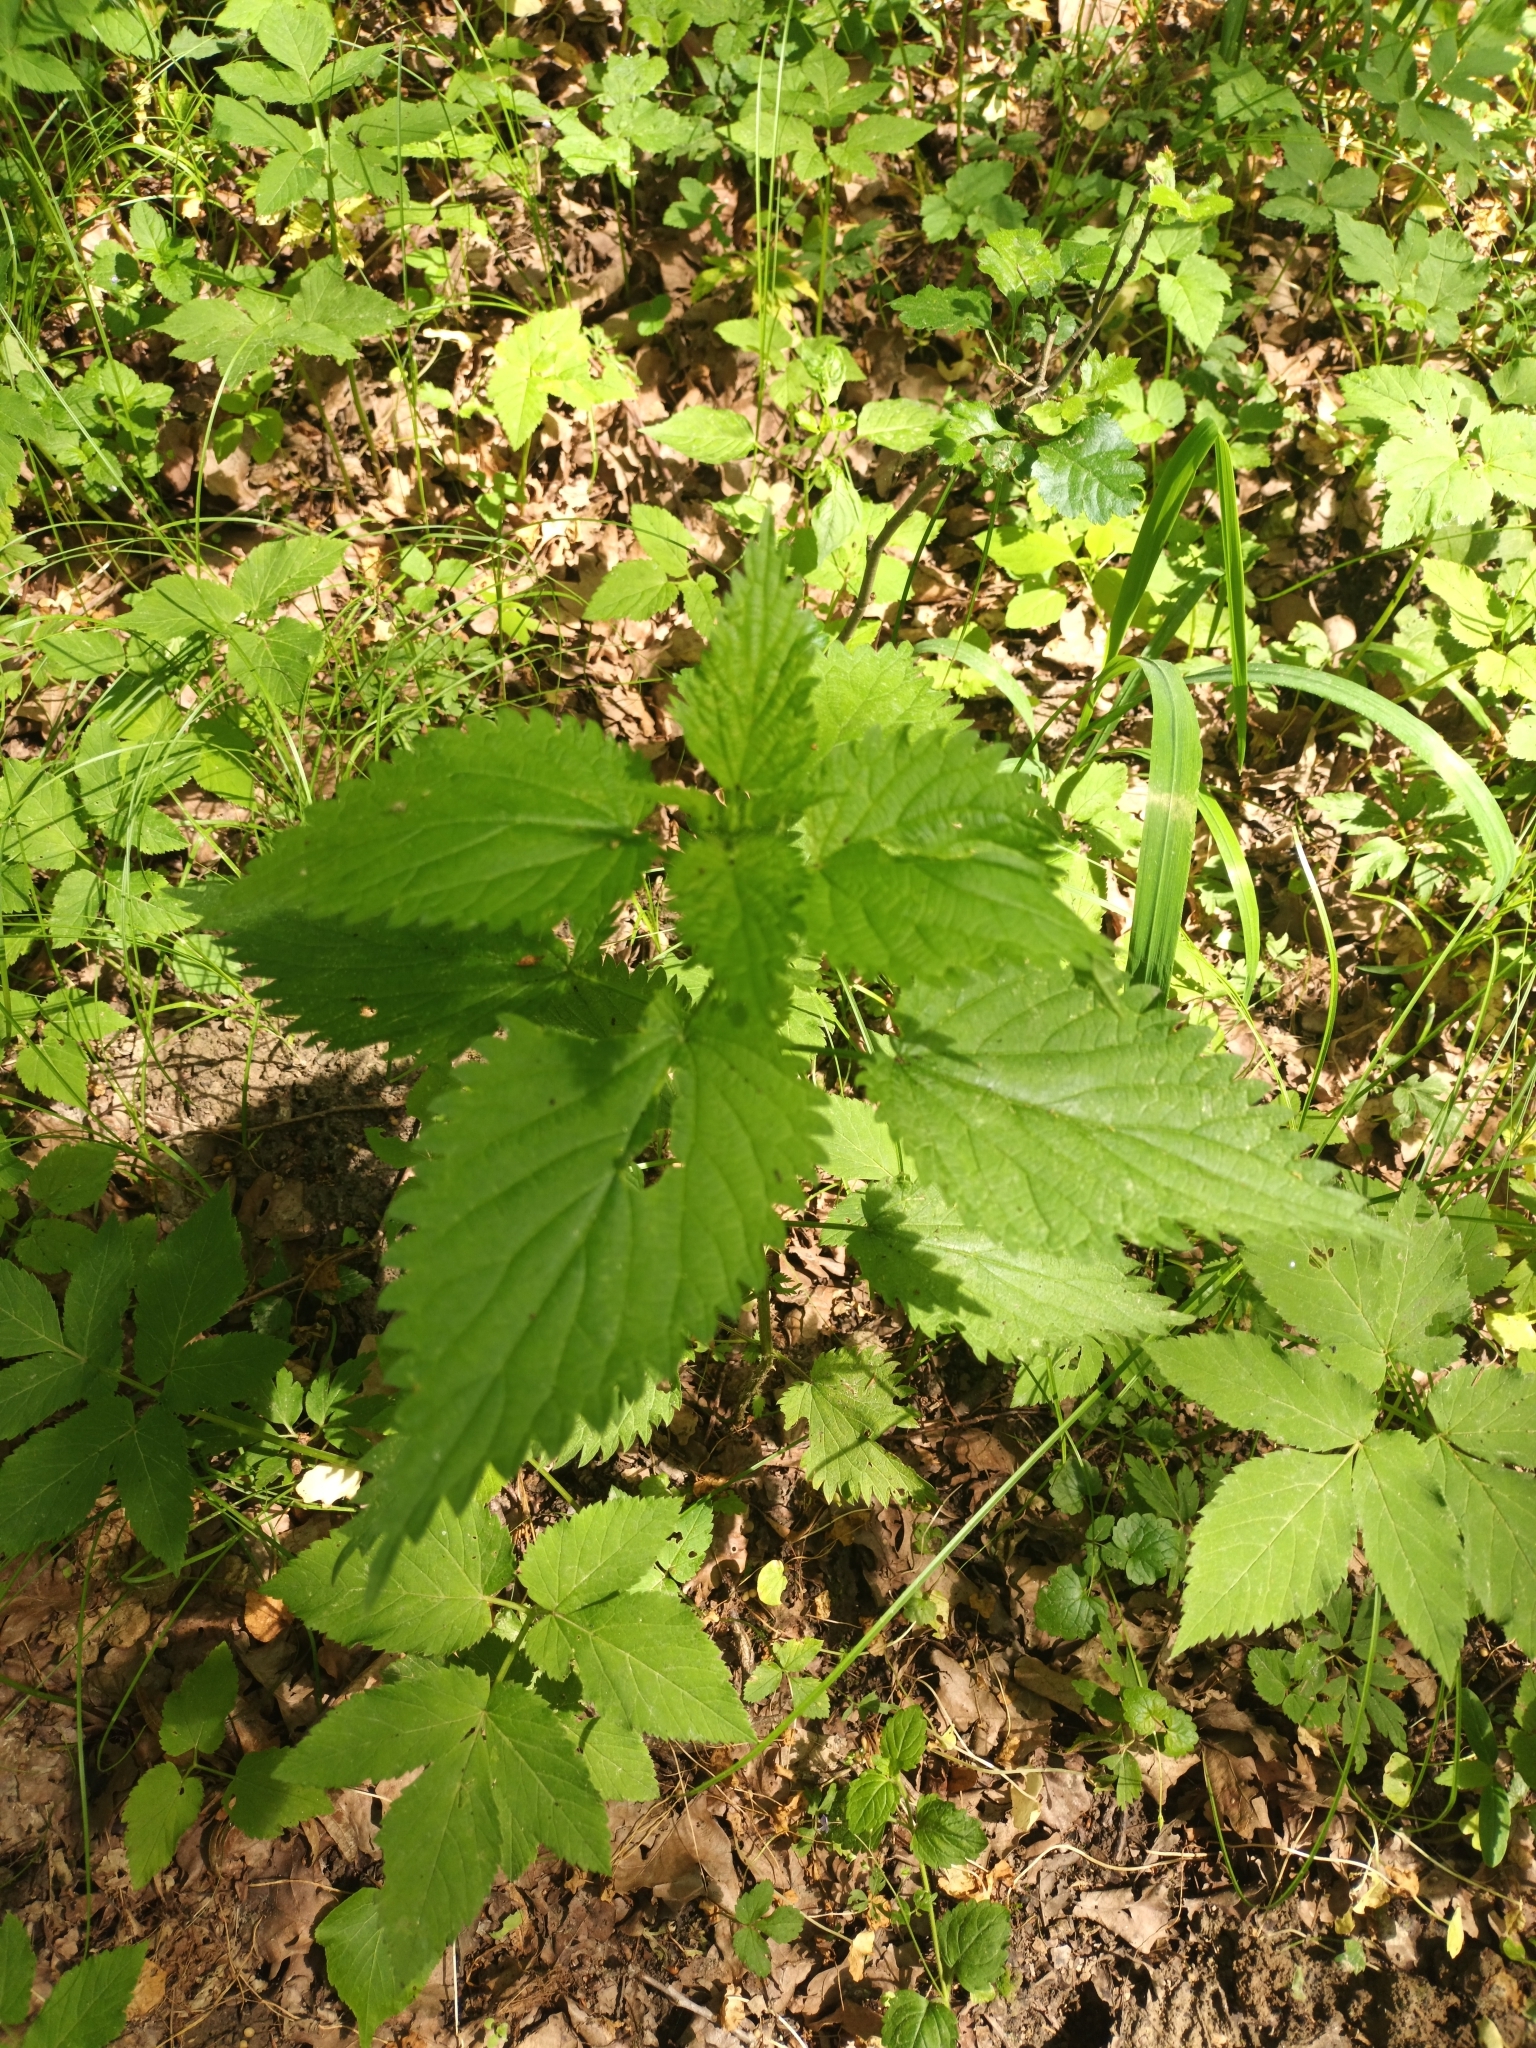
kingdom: Plantae
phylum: Tracheophyta
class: Magnoliopsida
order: Rosales
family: Urticaceae
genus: Urtica
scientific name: Urtica dioica
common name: Common nettle
